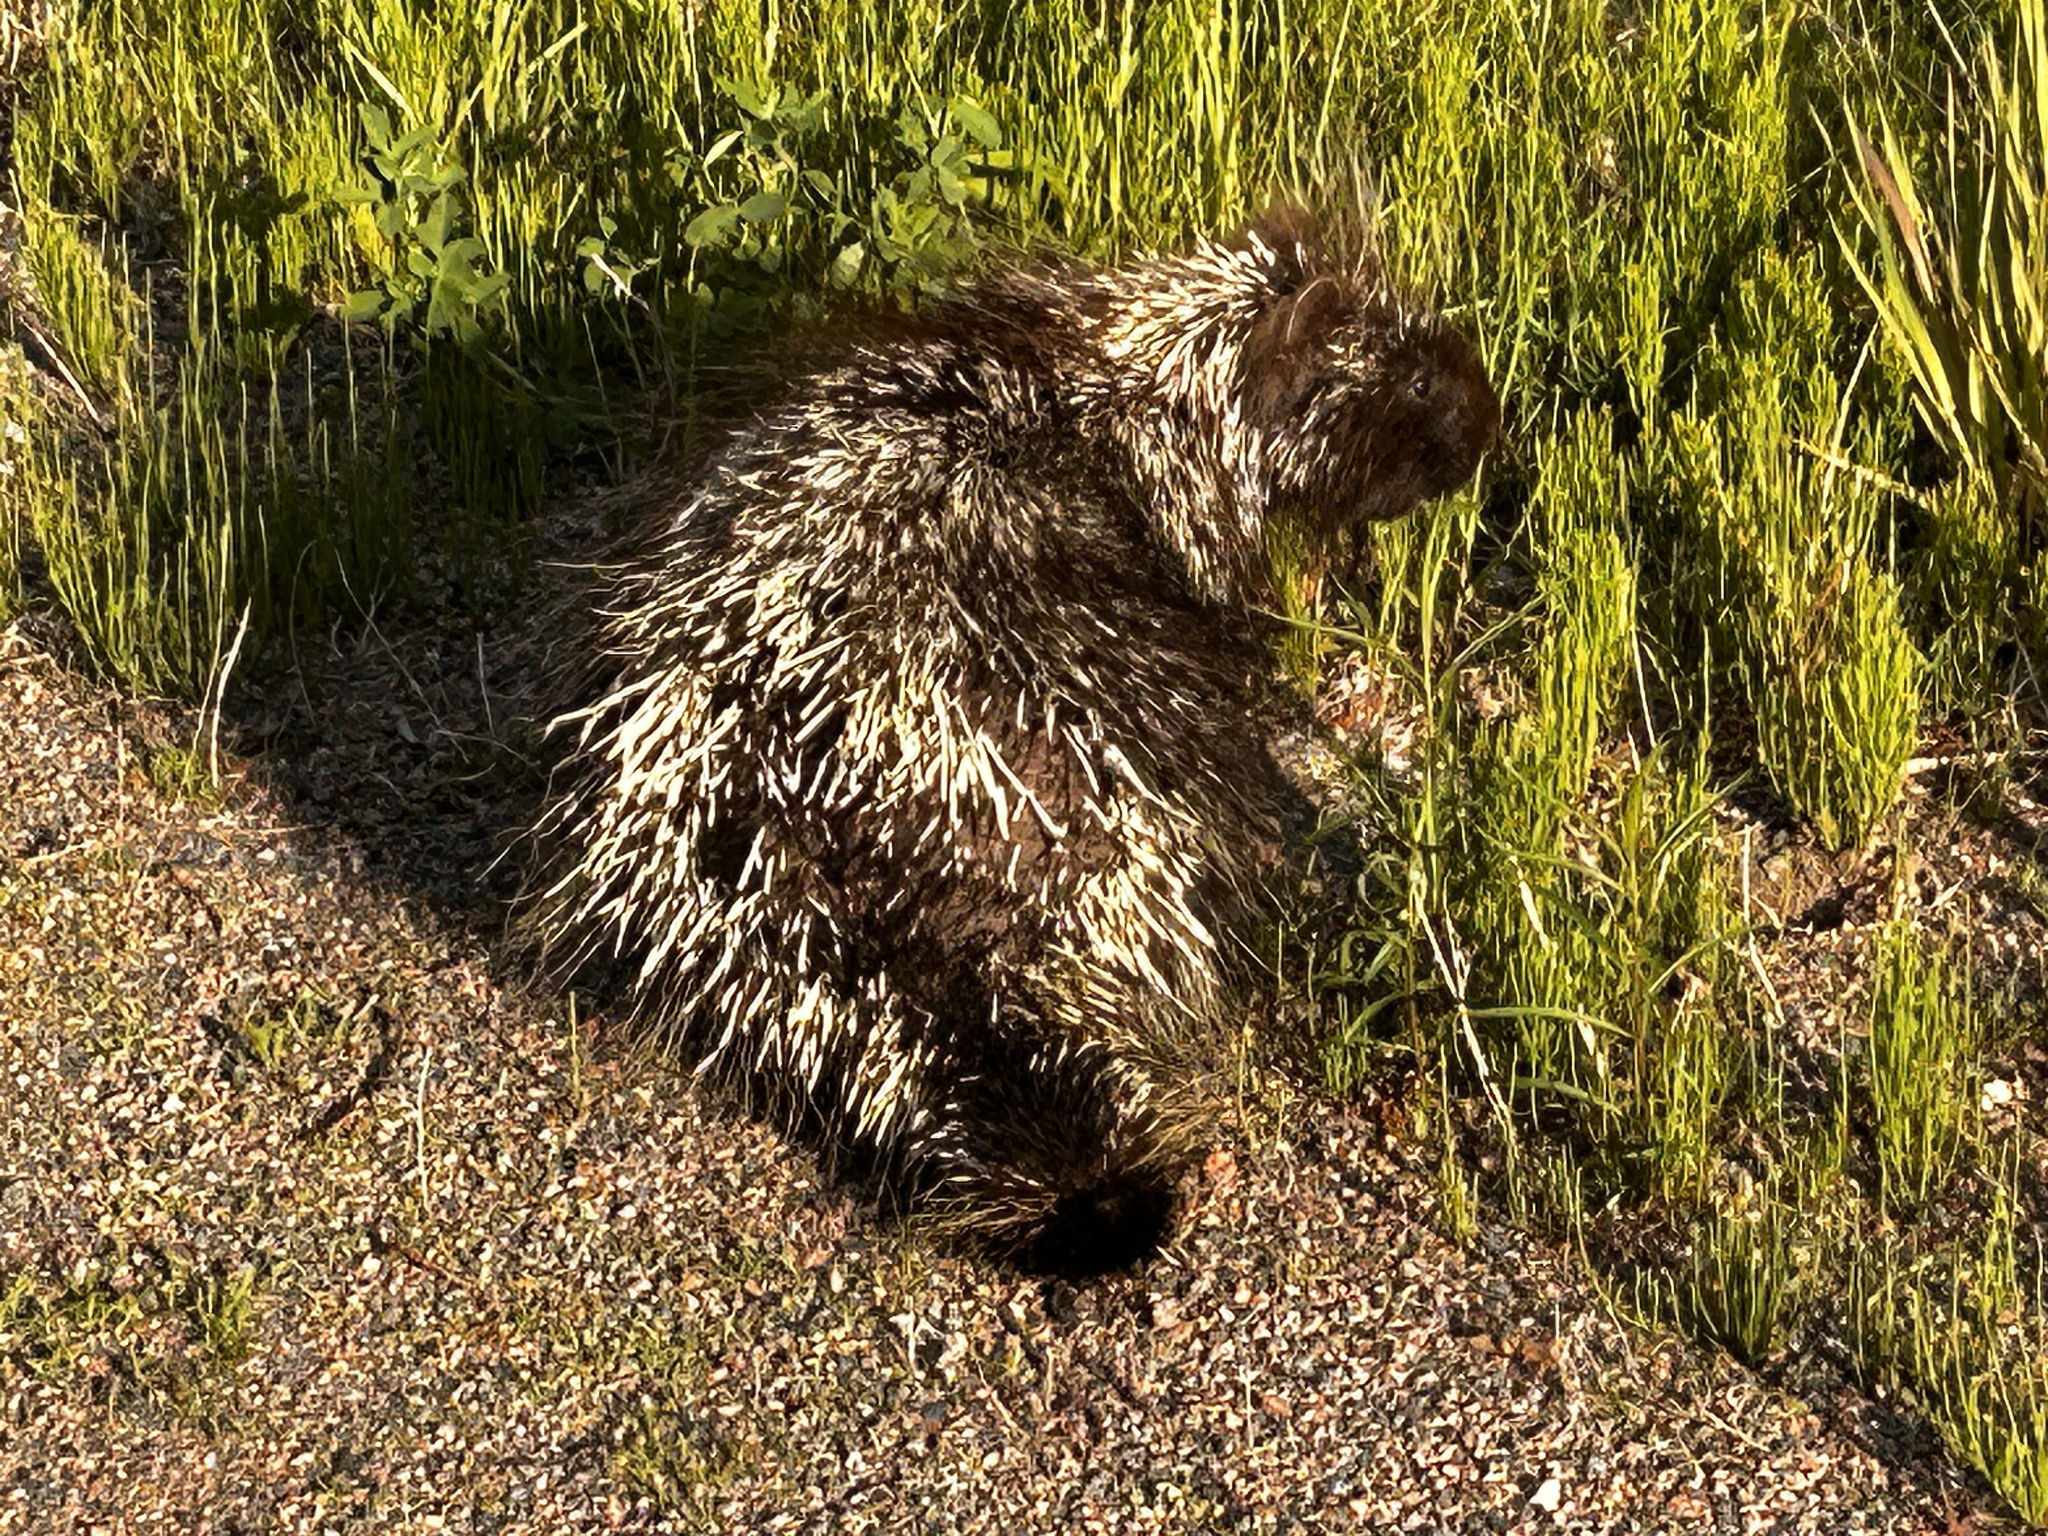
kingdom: Animalia
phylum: Chordata
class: Mammalia
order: Rodentia
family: Erethizontidae
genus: Erethizon
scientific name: Erethizon dorsatus
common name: North american porcupine
